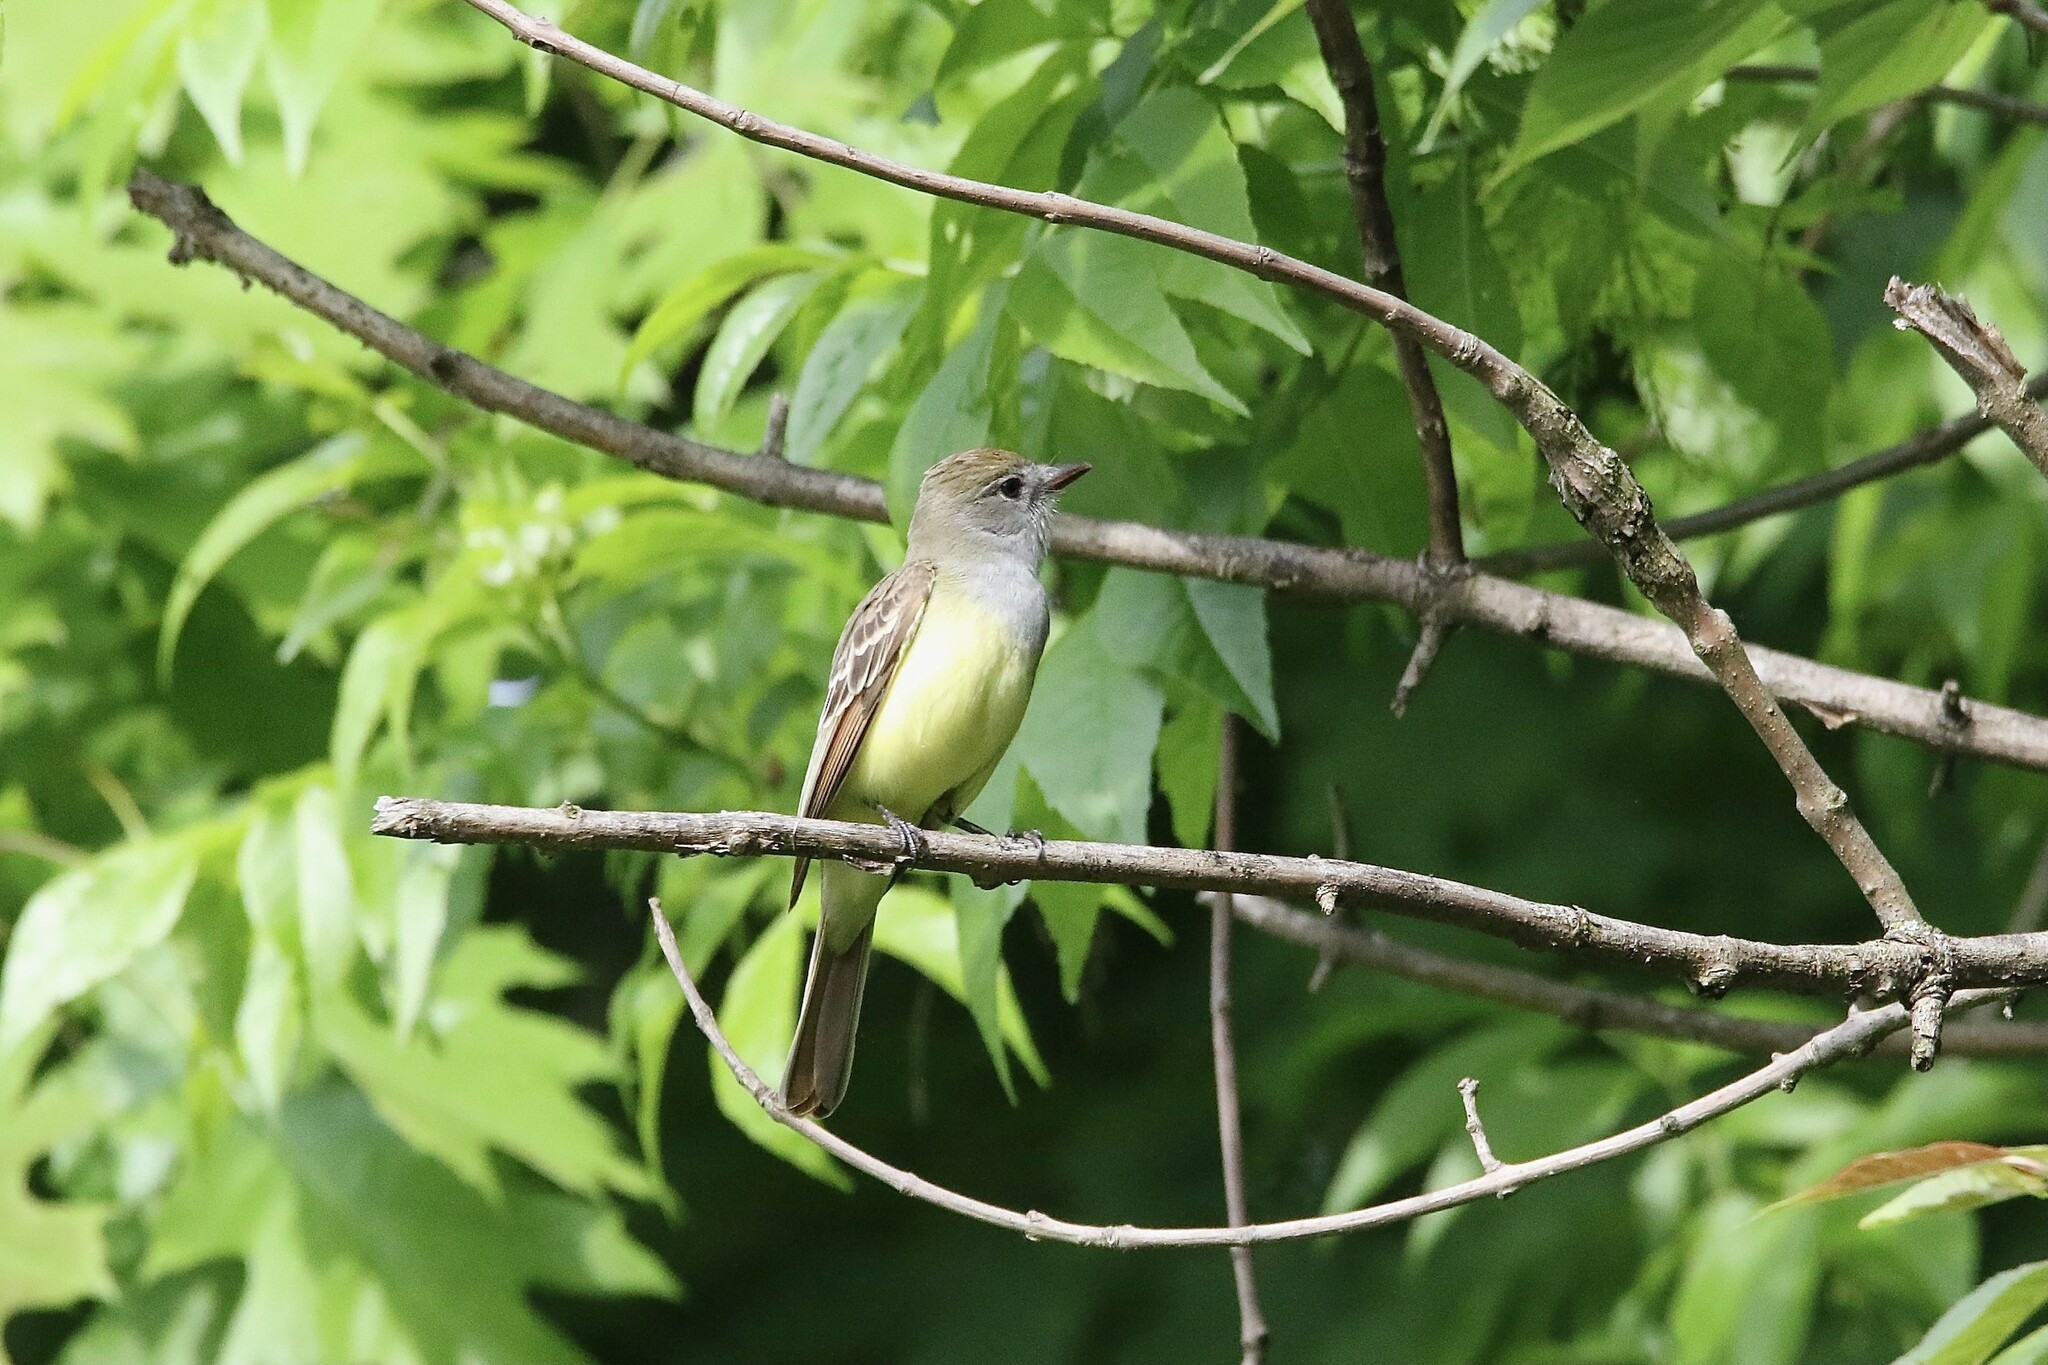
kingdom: Animalia
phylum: Chordata
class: Aves
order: Passeriformes
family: Tyrannidae
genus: Myiarchus
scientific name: Myiarchus crinitus
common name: Great crested flycatcher
